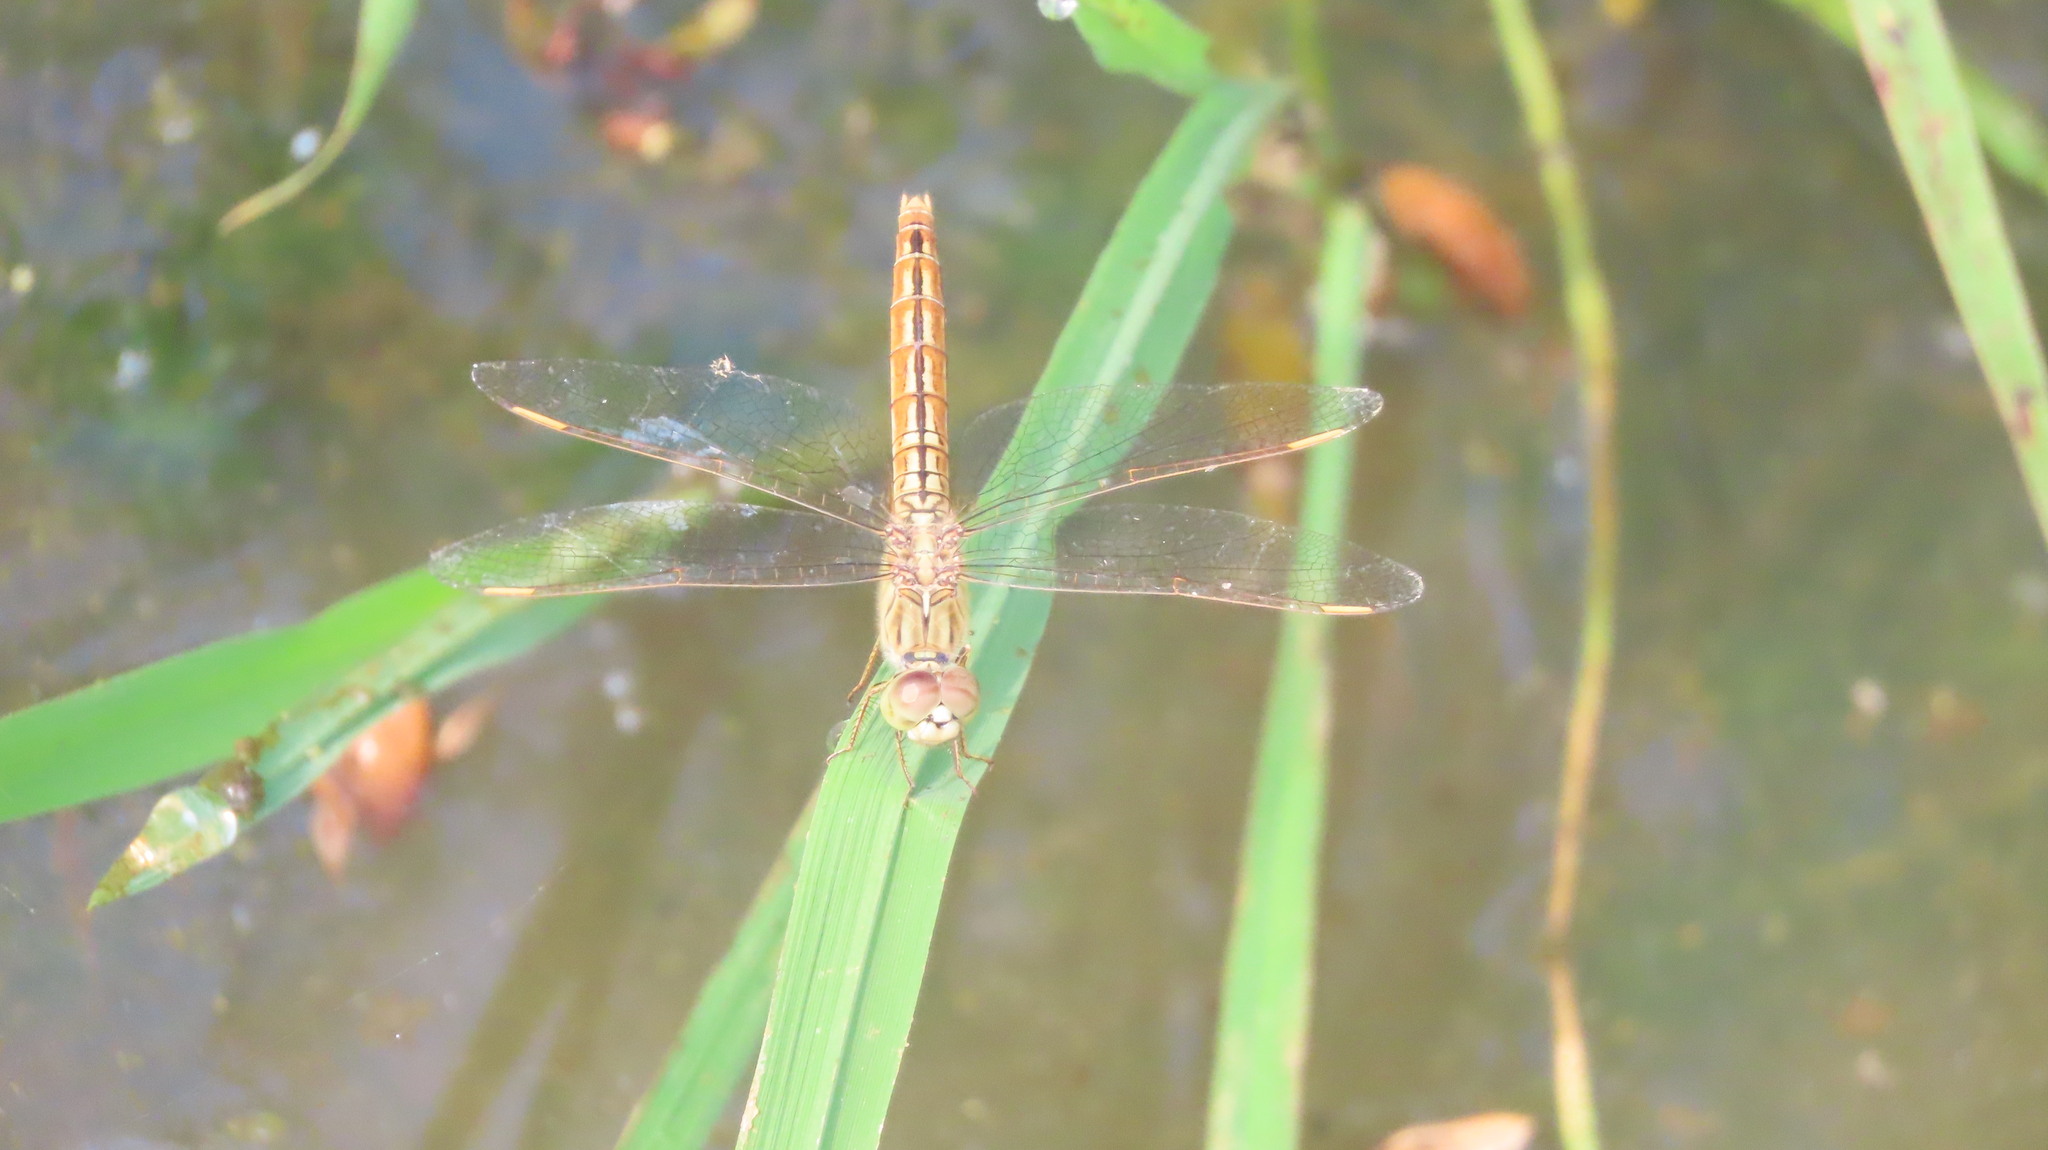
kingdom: Animalia
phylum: Arthropoda
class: Insecta
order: Odonata
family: Libellulidae
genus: Brachythemis
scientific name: Brachythemis contaminata
